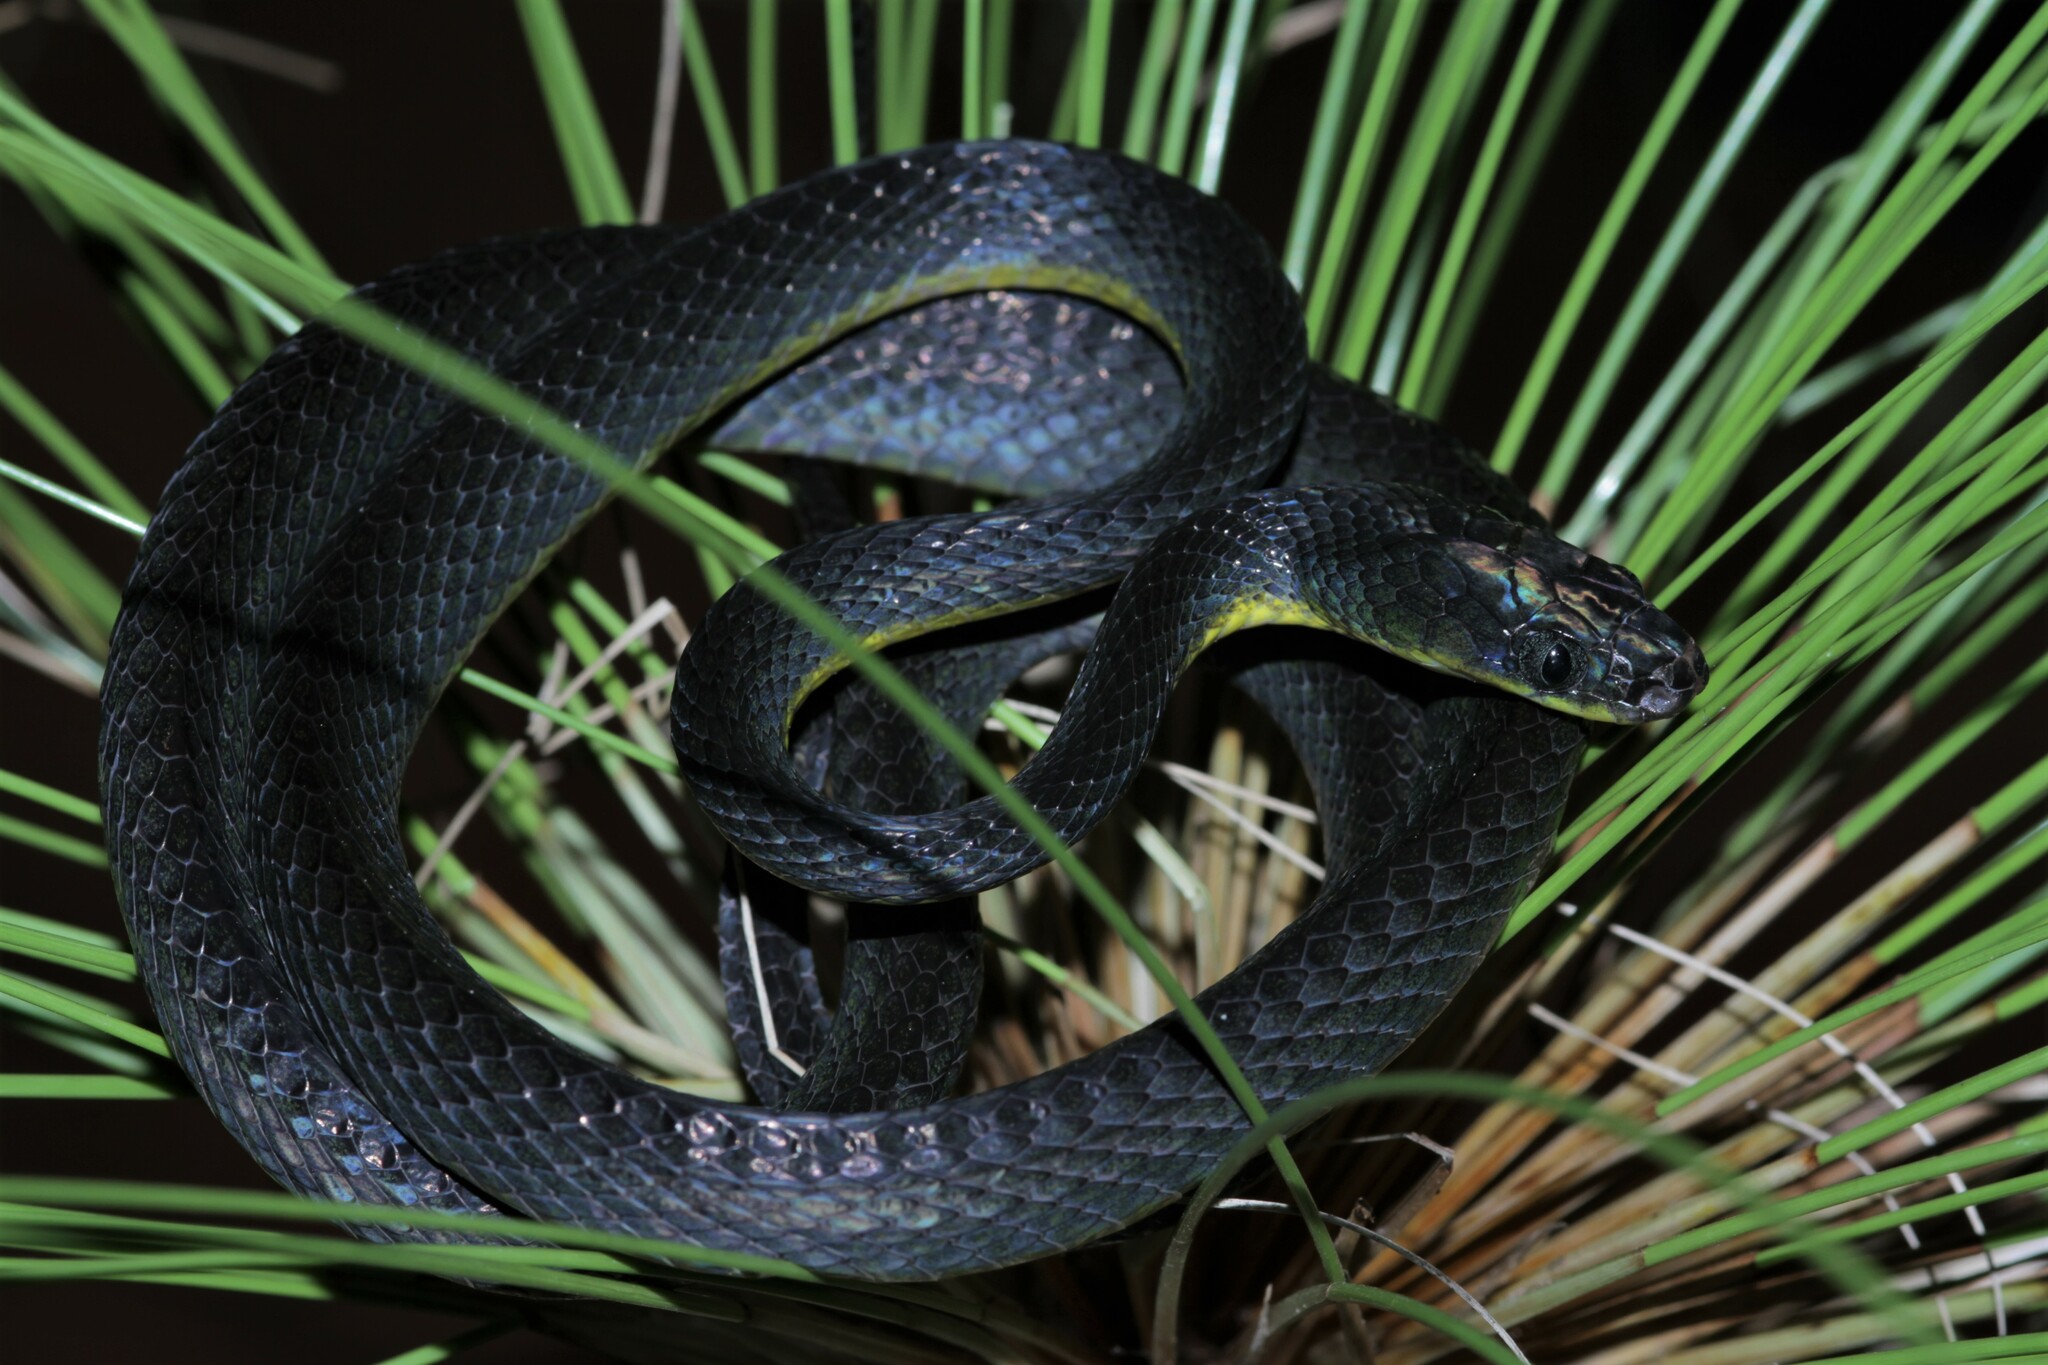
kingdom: Animalia
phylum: Chordata
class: Squamata
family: Colubridae
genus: Dipsadoboa
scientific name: Dipsadoboa underwoodi
